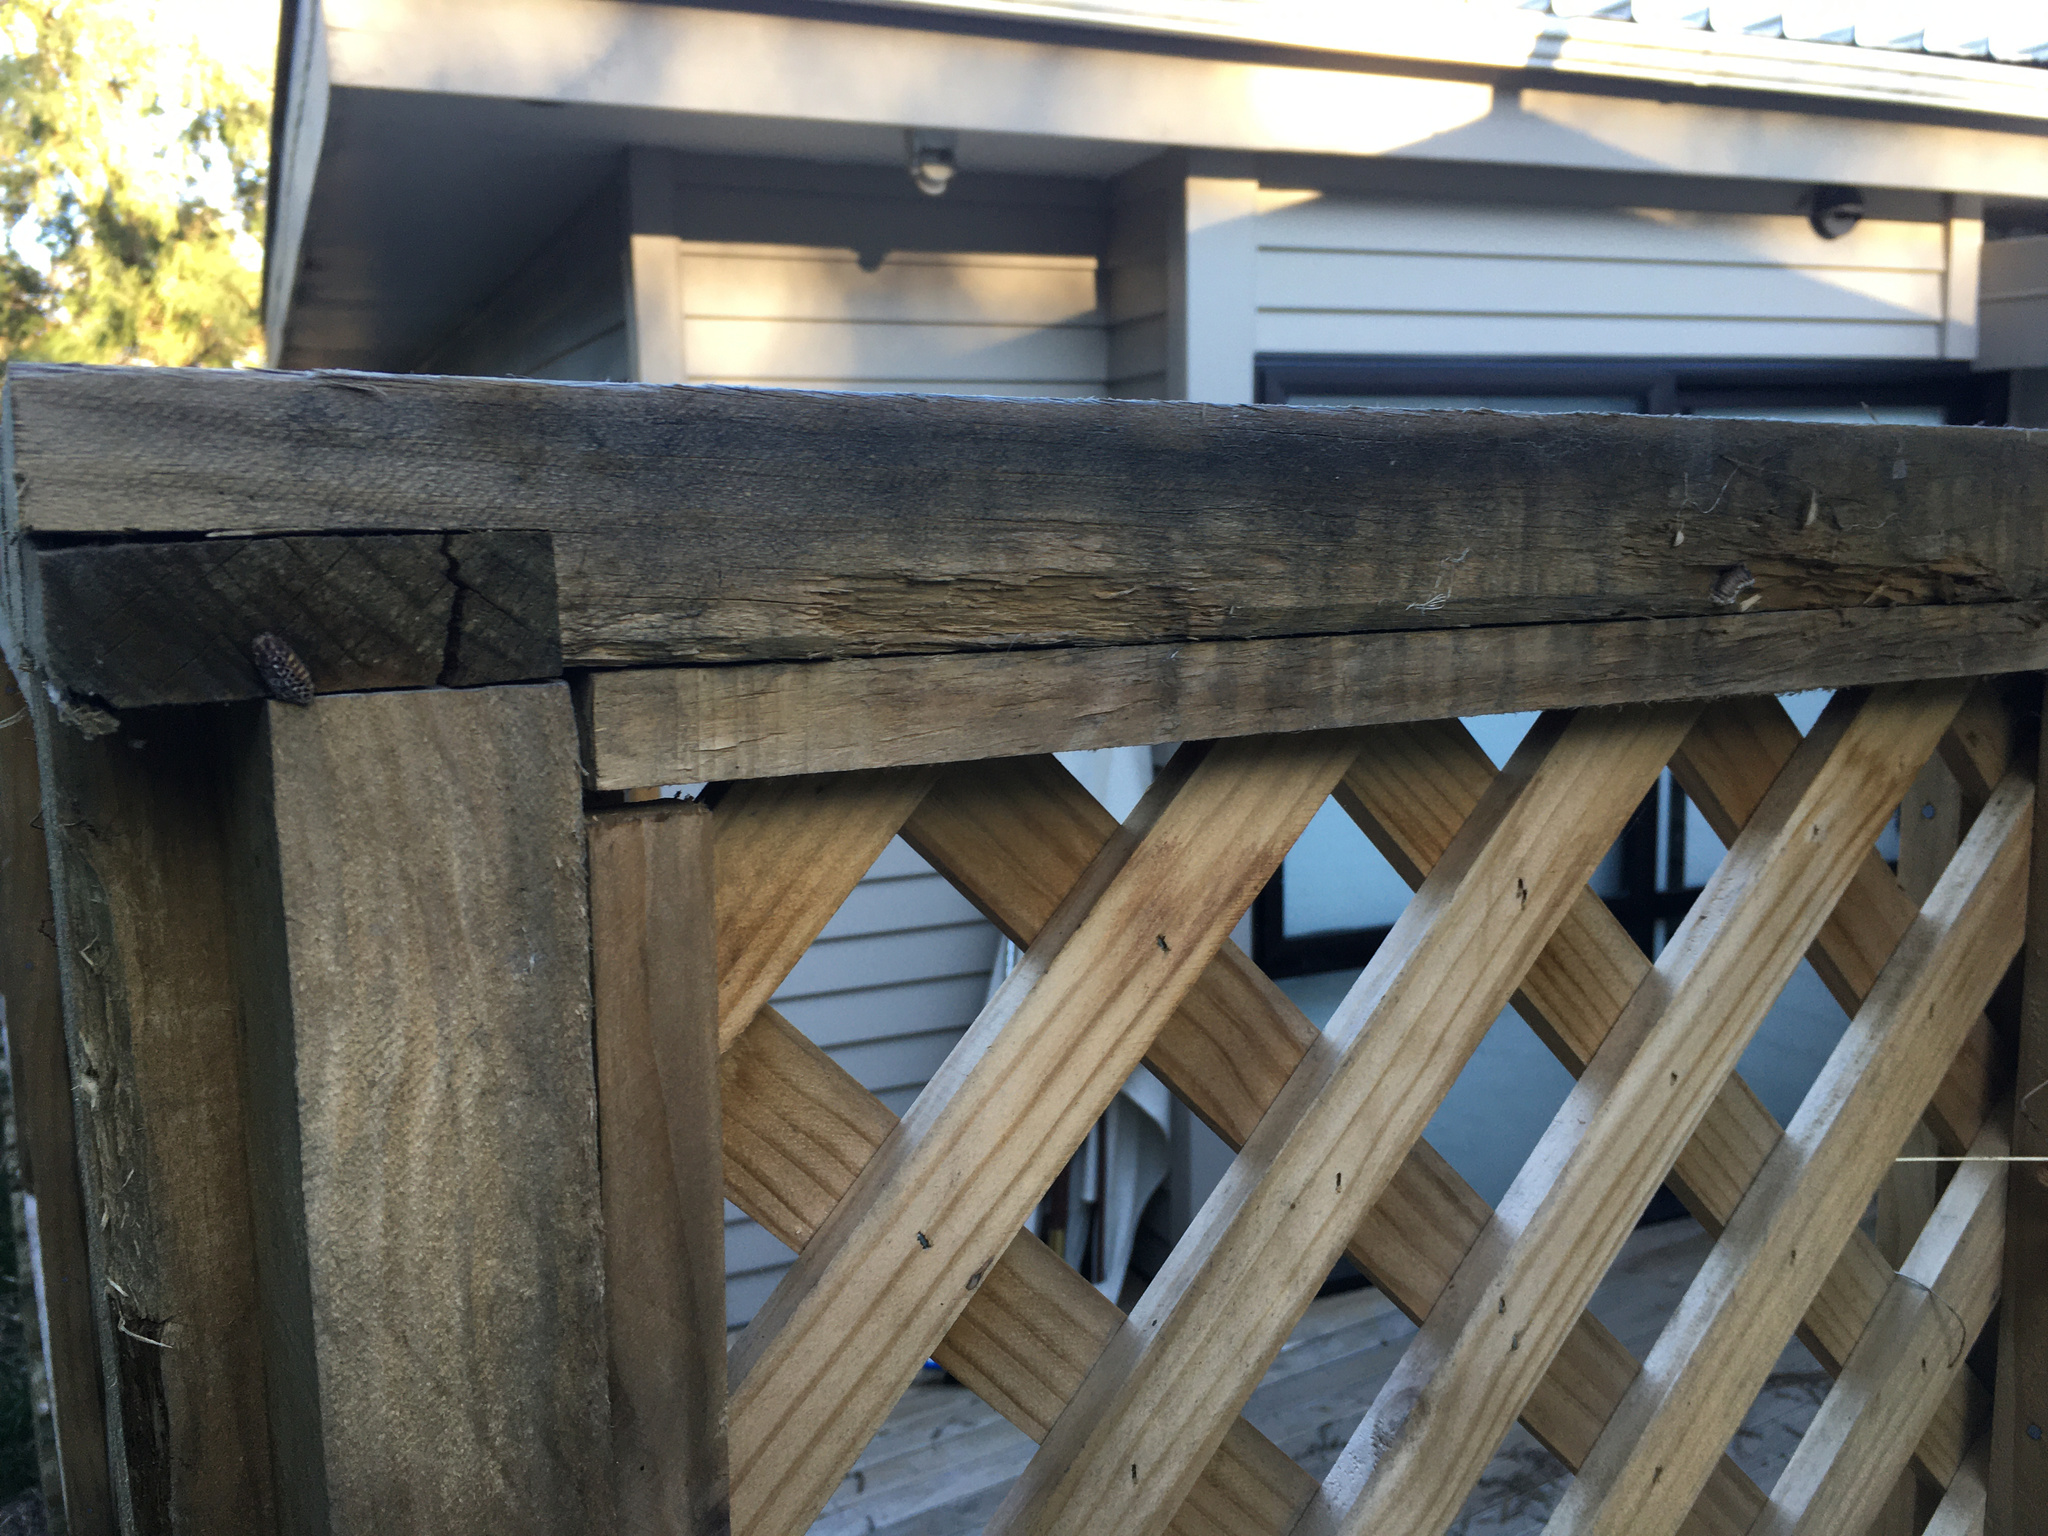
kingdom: Animalia
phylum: Arthropoda
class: Insecta
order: Mantodea
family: Mantidae
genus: Orthodera
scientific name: Orthodera novaezealandiae
